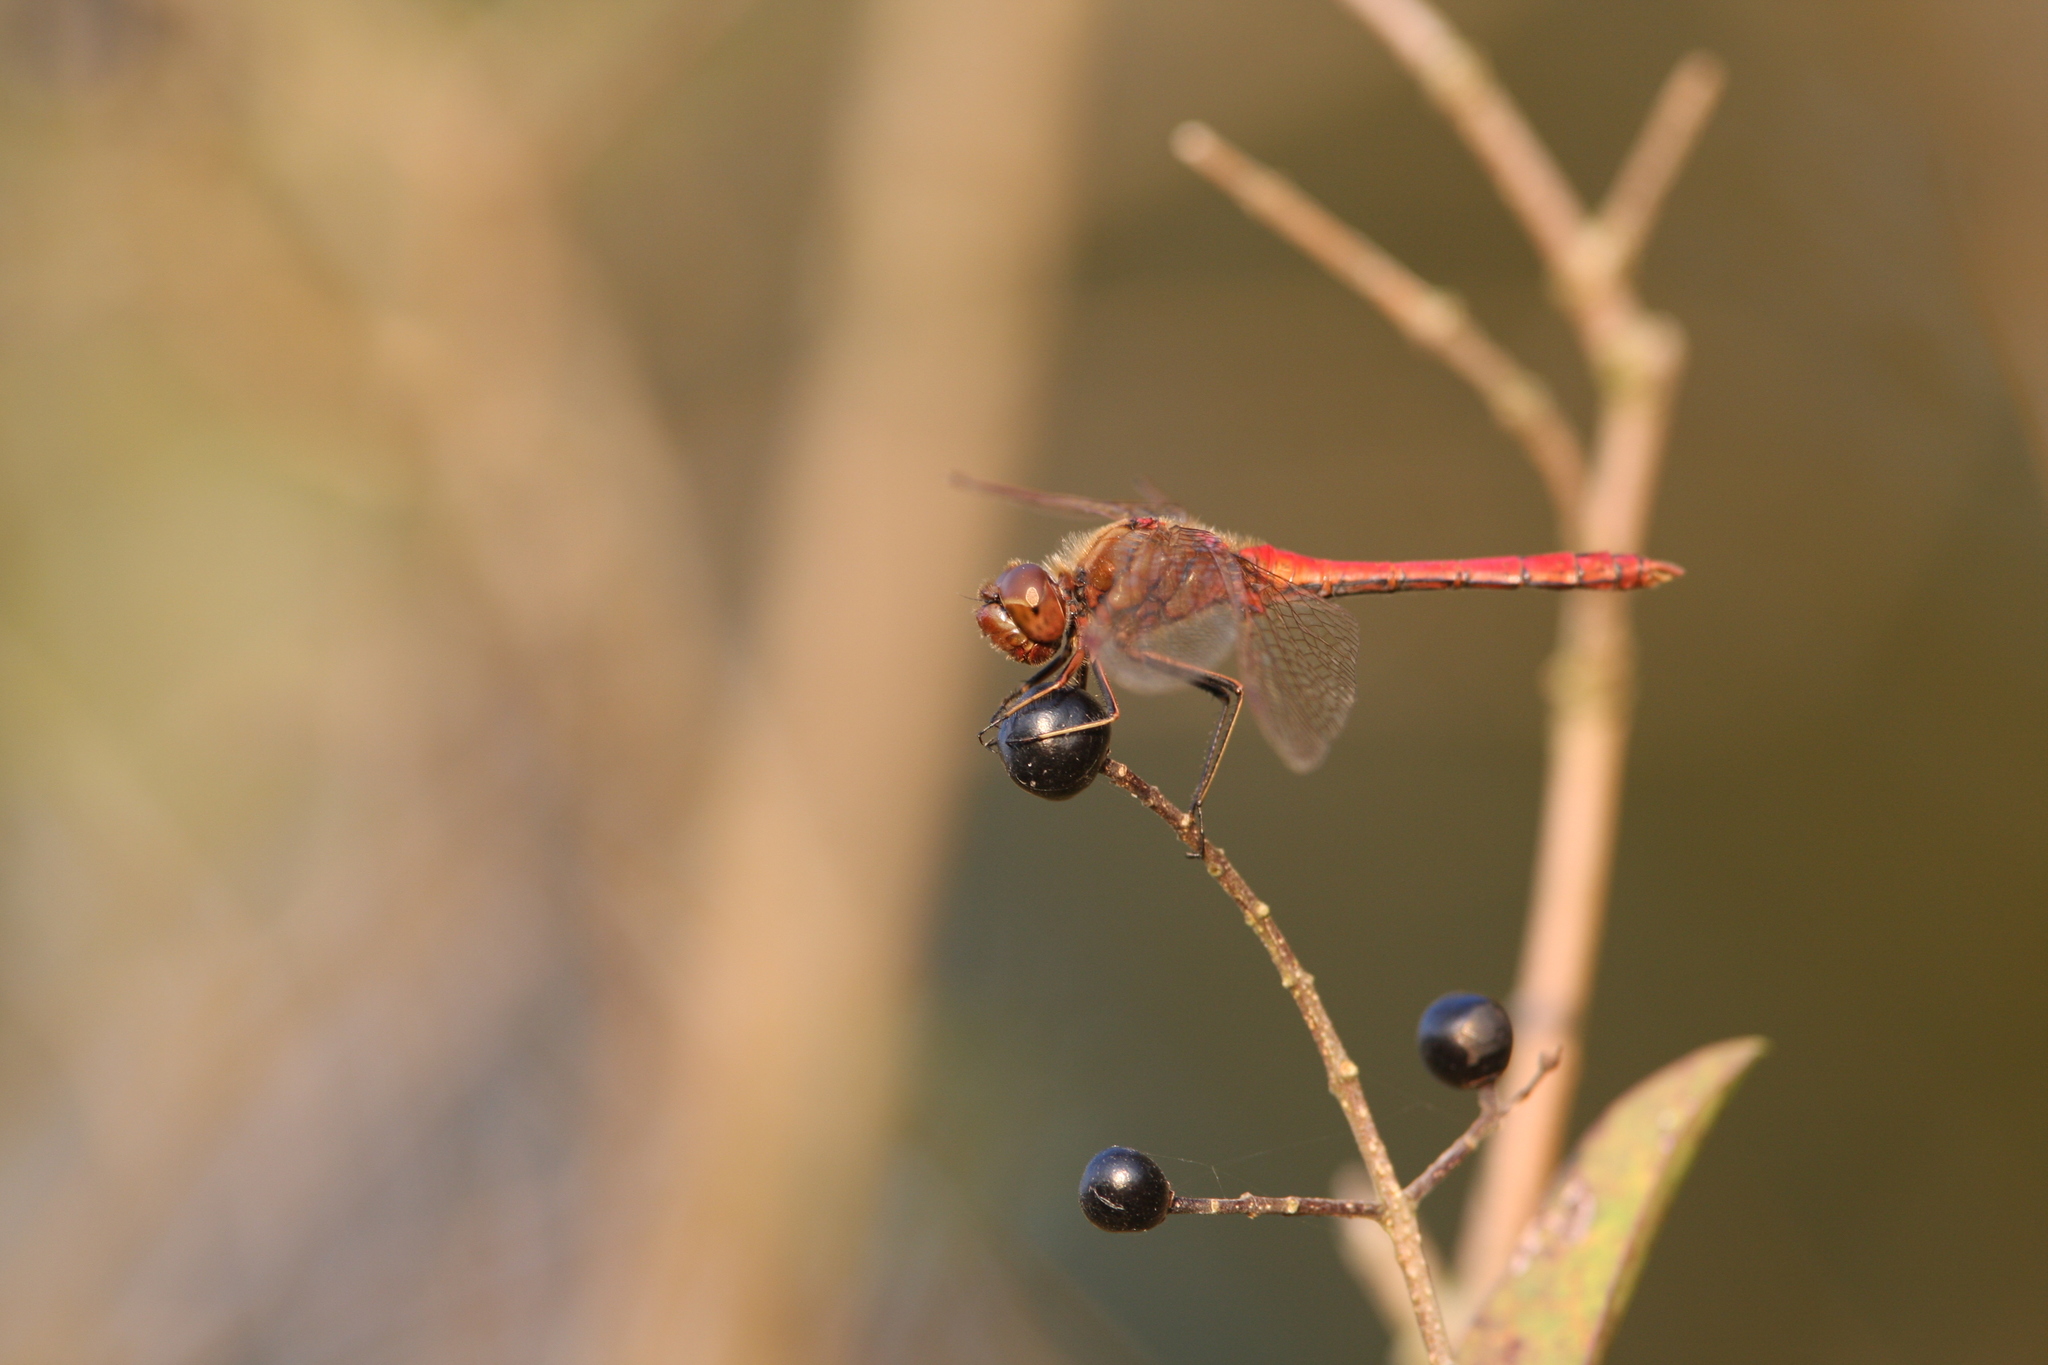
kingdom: Animalia
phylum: Arthropoda
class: Insecta
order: Odonata
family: Libellulidae
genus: Sympetrum
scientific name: Sympetrum vulgatum
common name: Vagrant darter
